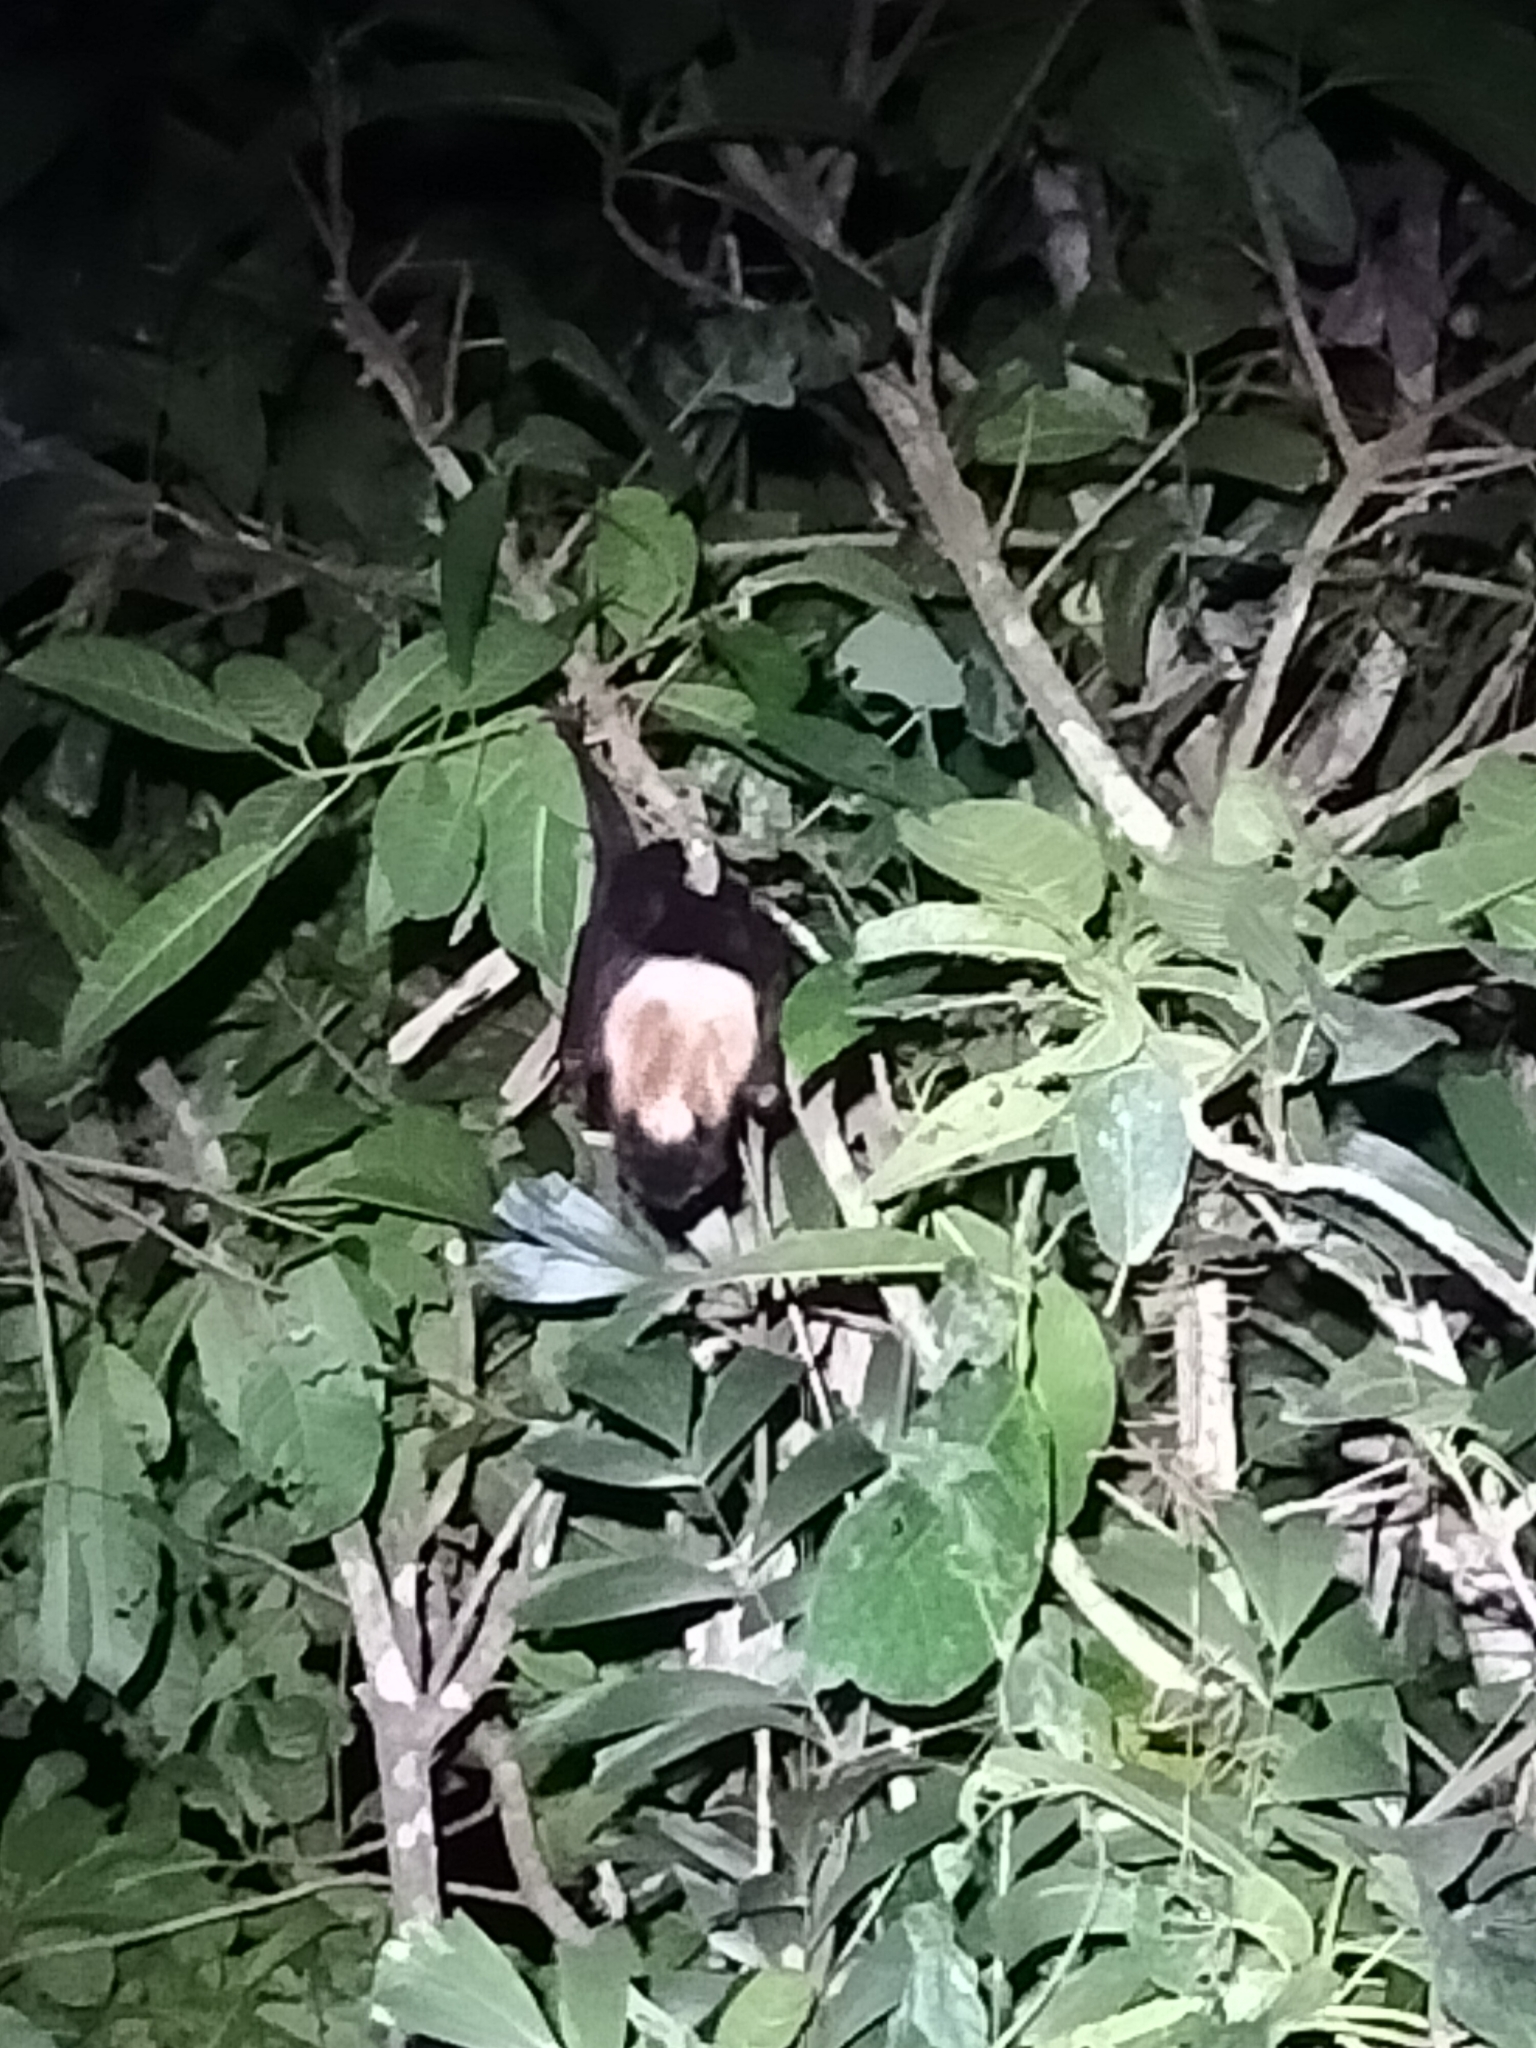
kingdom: Animalia
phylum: Chordata
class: Mammalia
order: Chiroptera
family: Pteropodidae
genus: Pteropus
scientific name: Pteropus conspicillatus
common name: Spectacled flying fox
